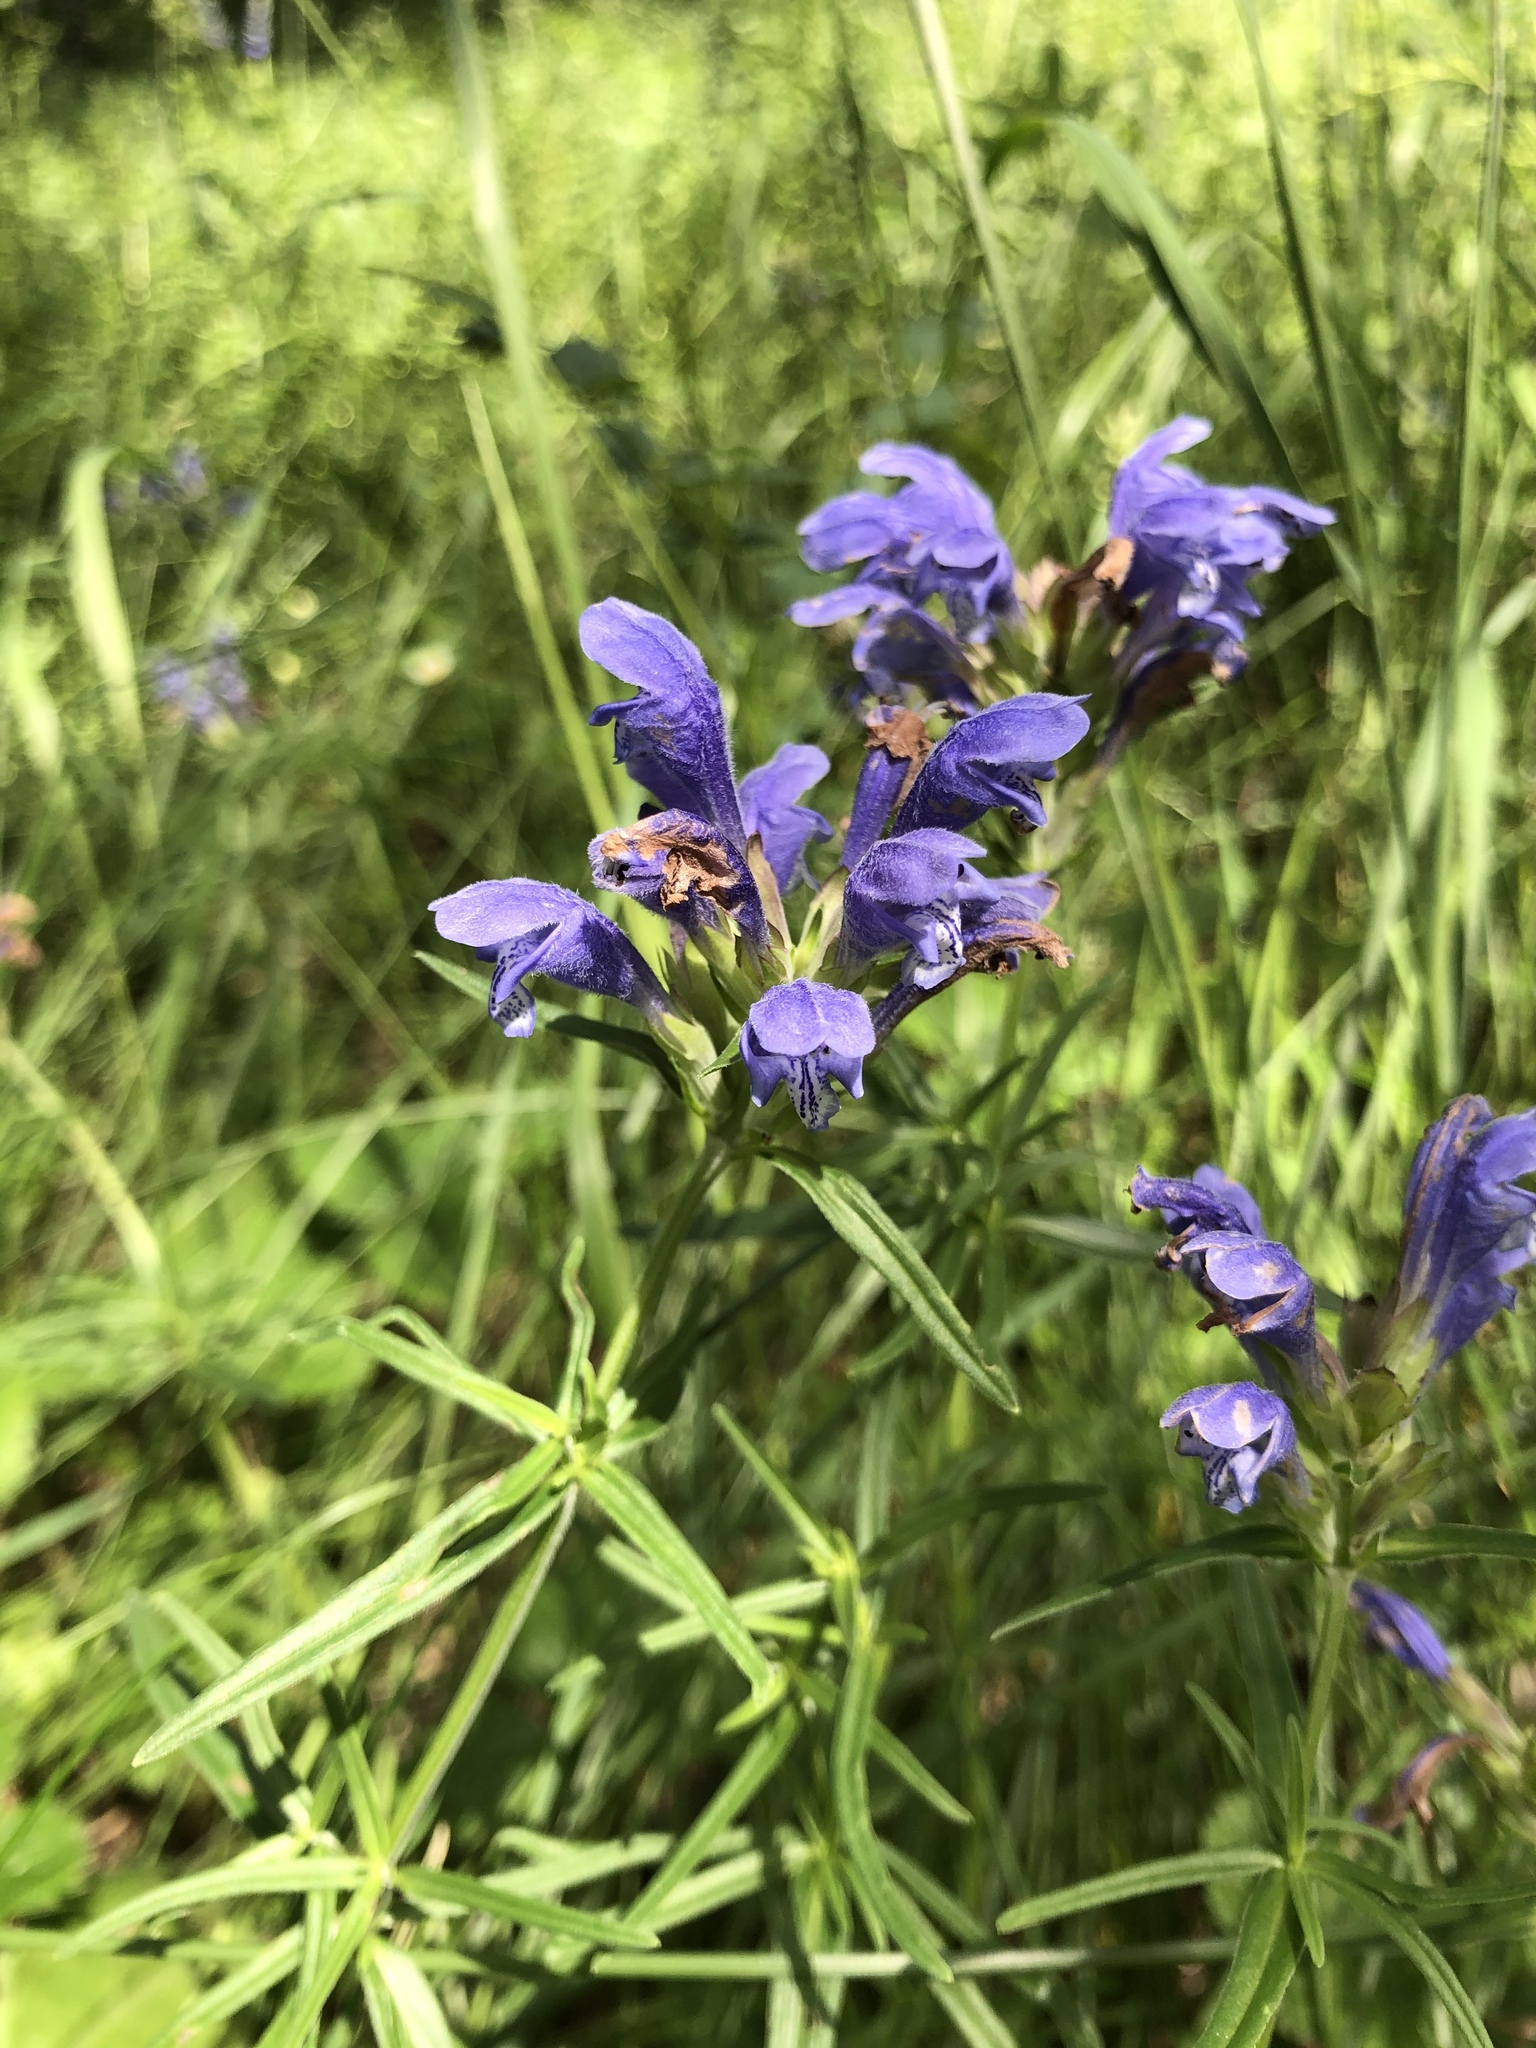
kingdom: Plantae
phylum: Tracheophyta
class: Magnoliopsida
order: Lamiales
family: Lamiaceae
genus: Dracocephalum
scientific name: Dracocephalum ruyschiana
